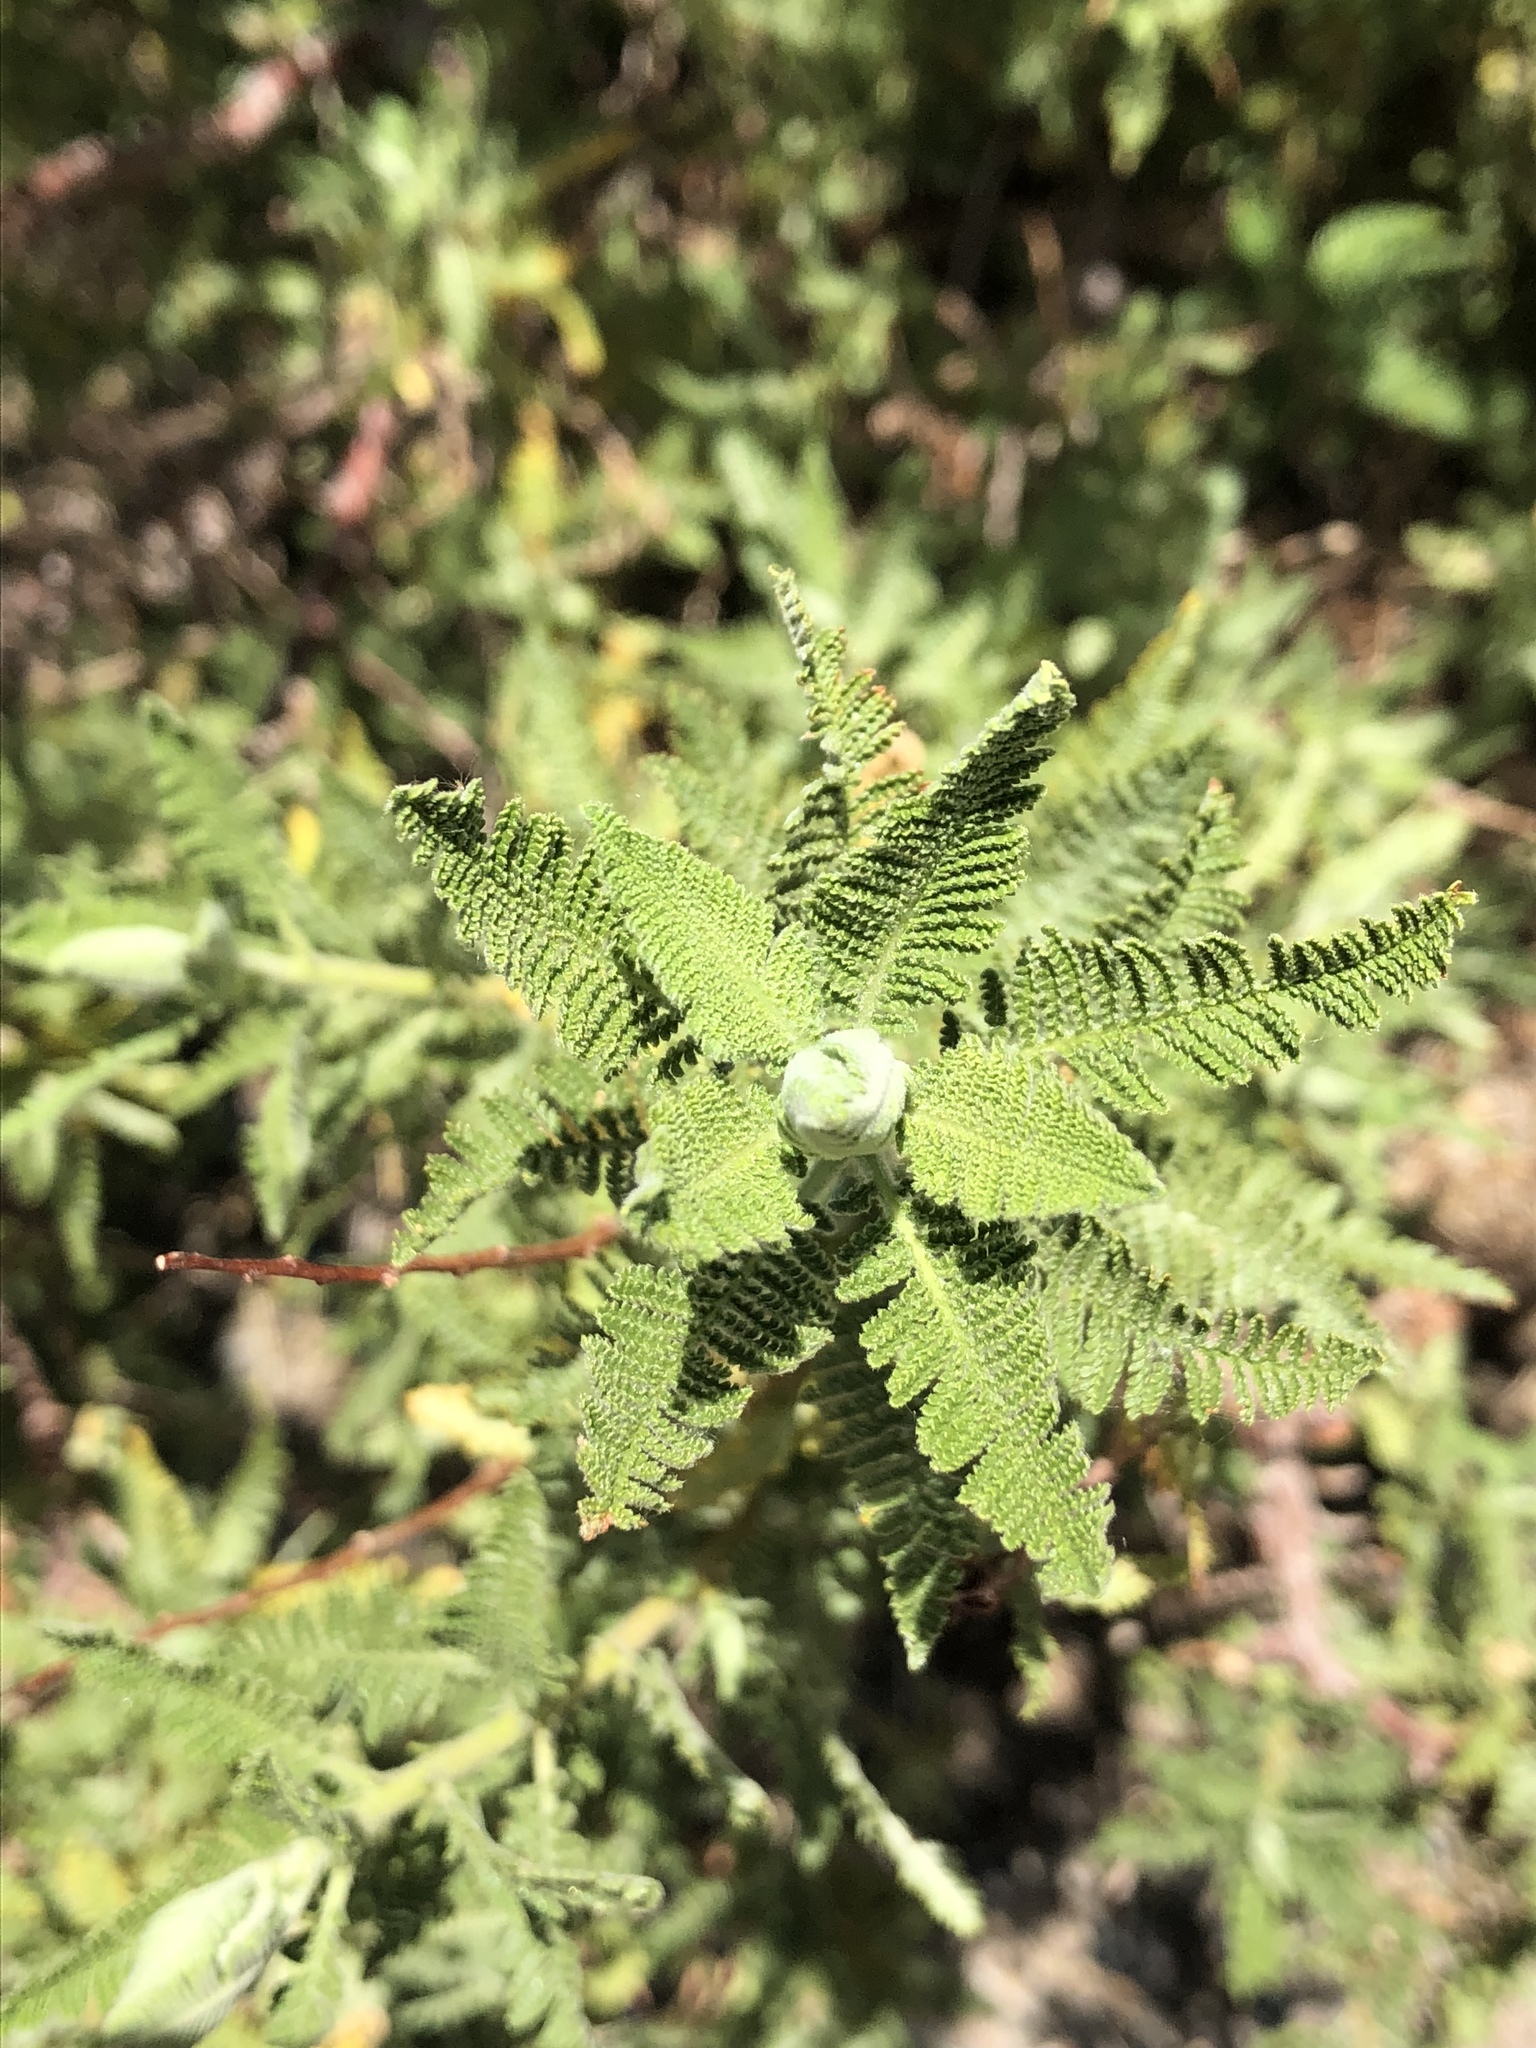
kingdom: Plantae
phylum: Tracheophyta
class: Magnoliopsida
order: Rosales
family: Rosaceae
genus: Chamaebatiaria
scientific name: Chamaebatiaria millefolium
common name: Fernbush
